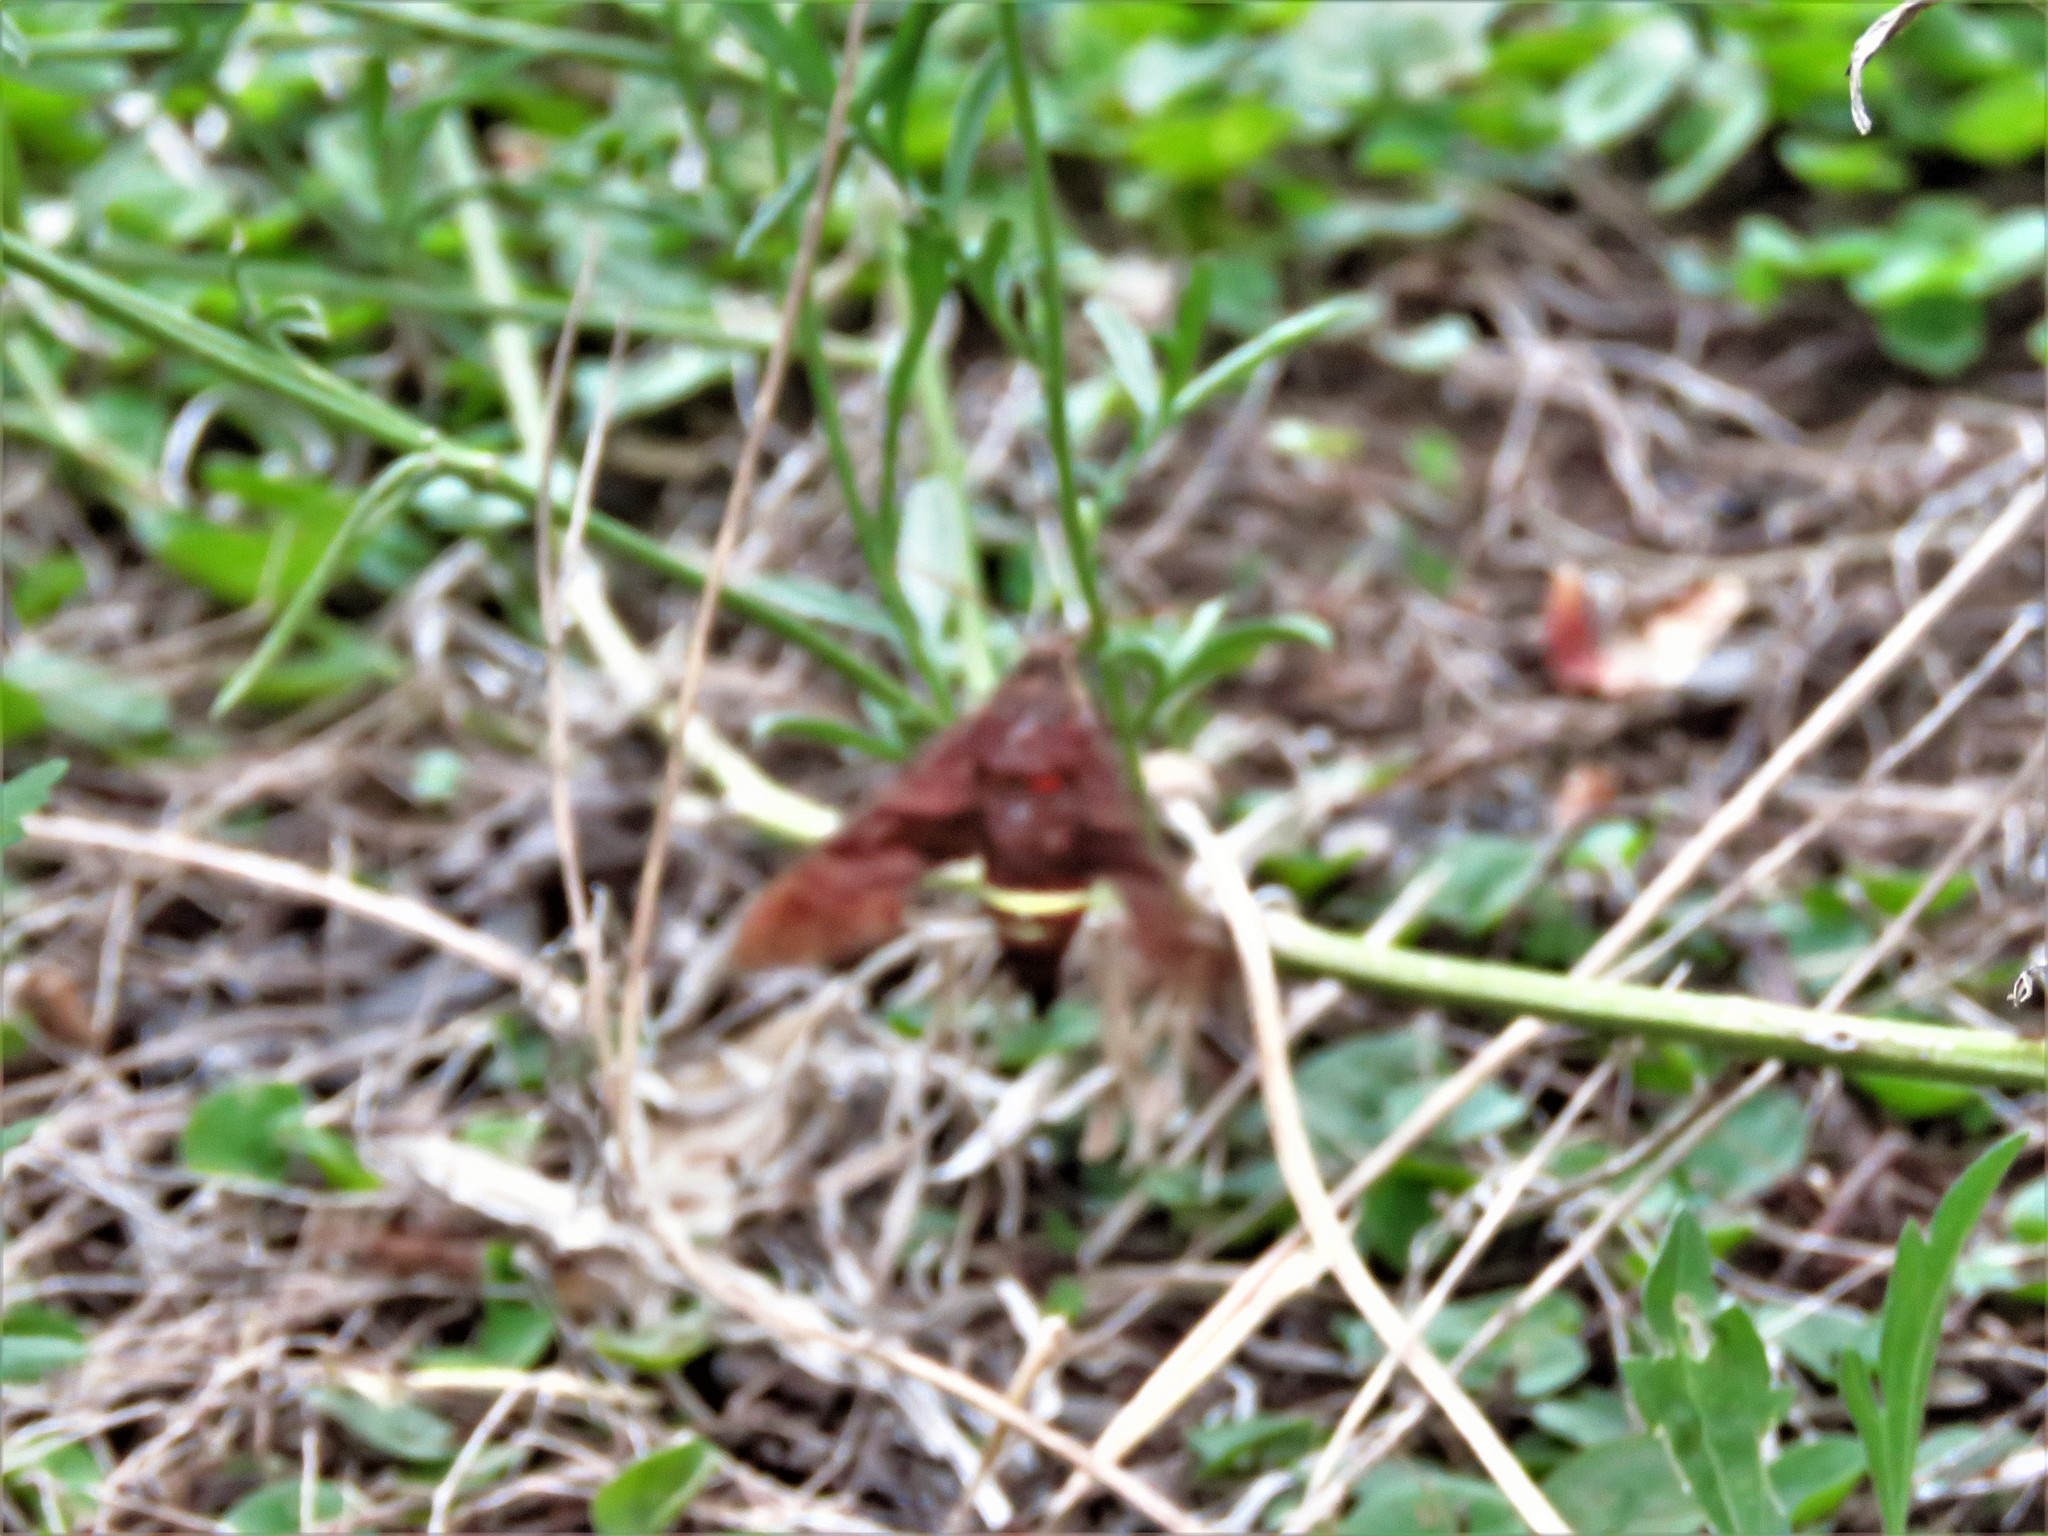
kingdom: Animalia
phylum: Arthropoda
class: Insecta
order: Lepidoptera
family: Sphingidae
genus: Amphion
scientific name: Amphion floridensis
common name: Nessus sphinx
